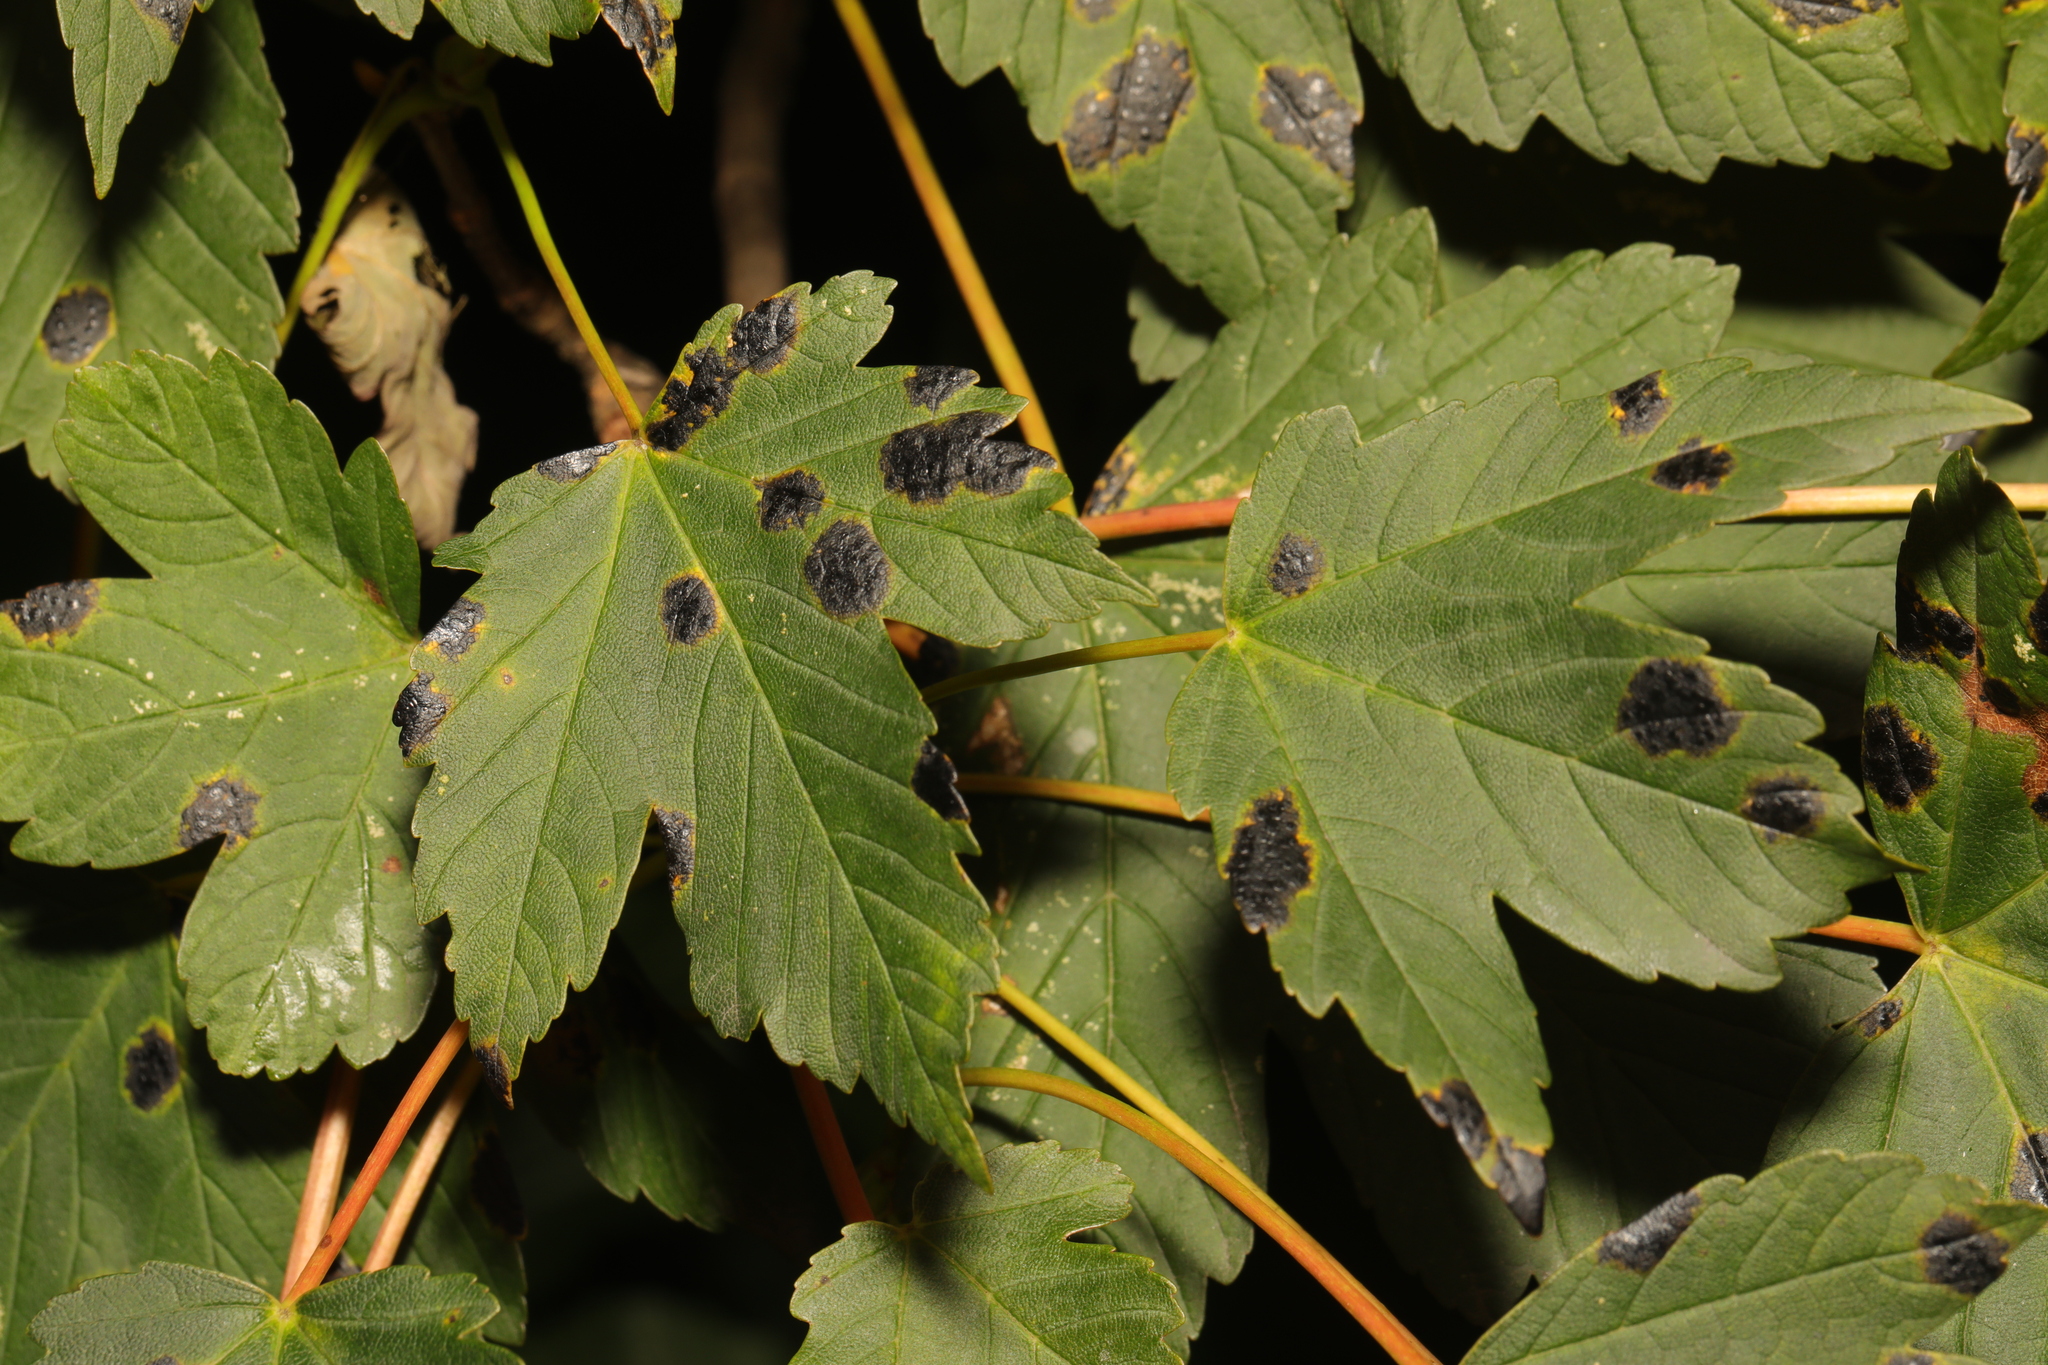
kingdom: Plantae
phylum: Tracheophyta
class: Magnoliopsida
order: Sapindales
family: Sapindaceae
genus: Acer
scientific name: Acer pseudoplatanus
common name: Sycamore
